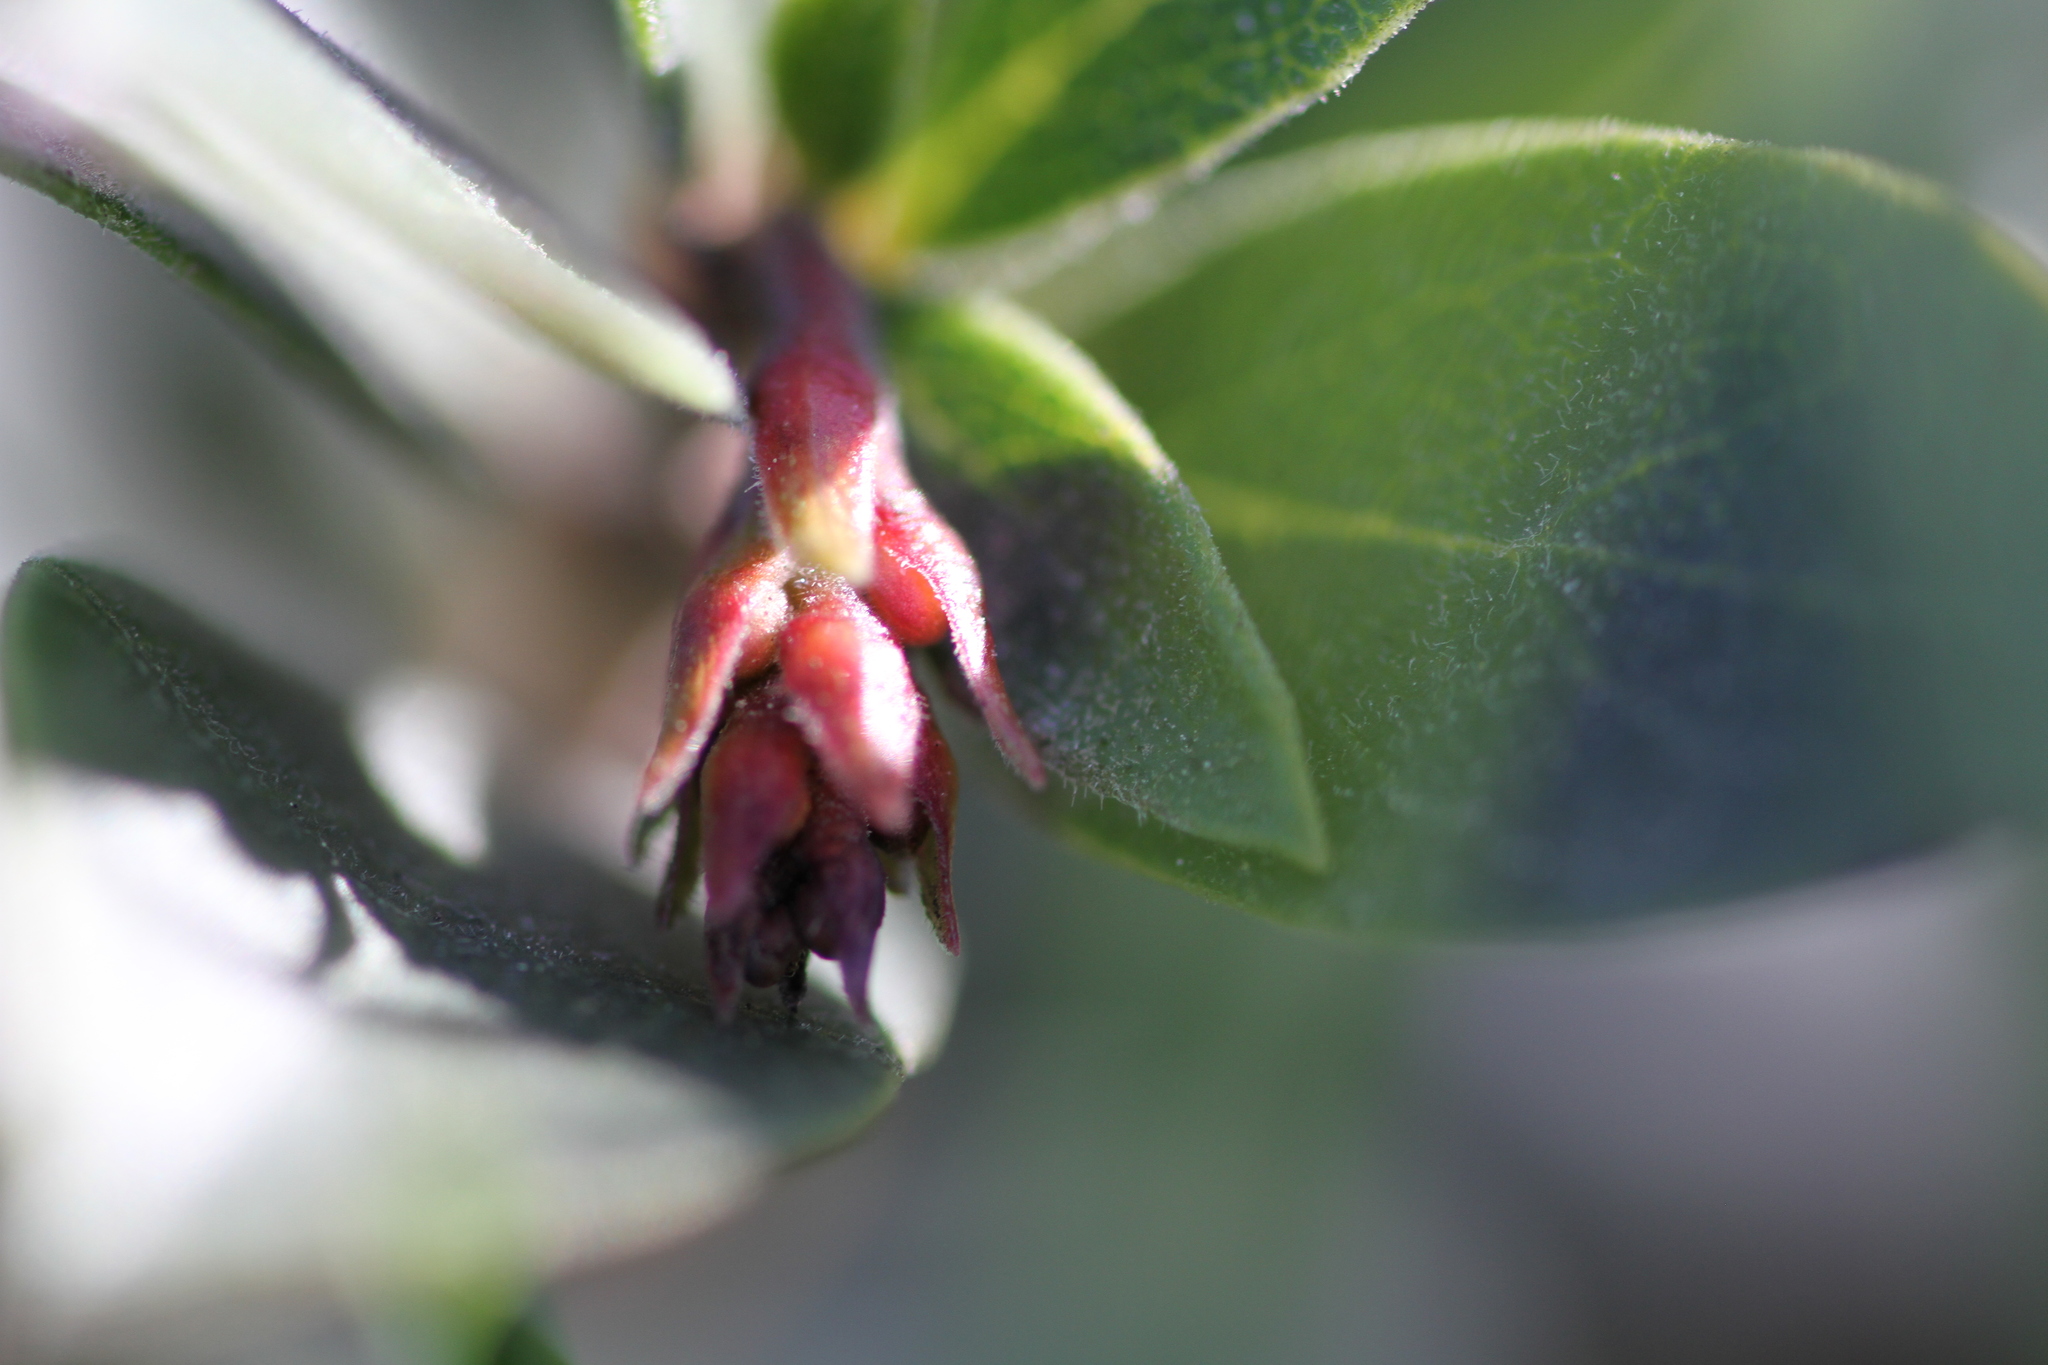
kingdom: Plantae
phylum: Tracheophyta
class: Magnoliopsida
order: Ericales
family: Ericaceae
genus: Arctostaphylos
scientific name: Arctostaphylos uva-ursi
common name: Bearberry
